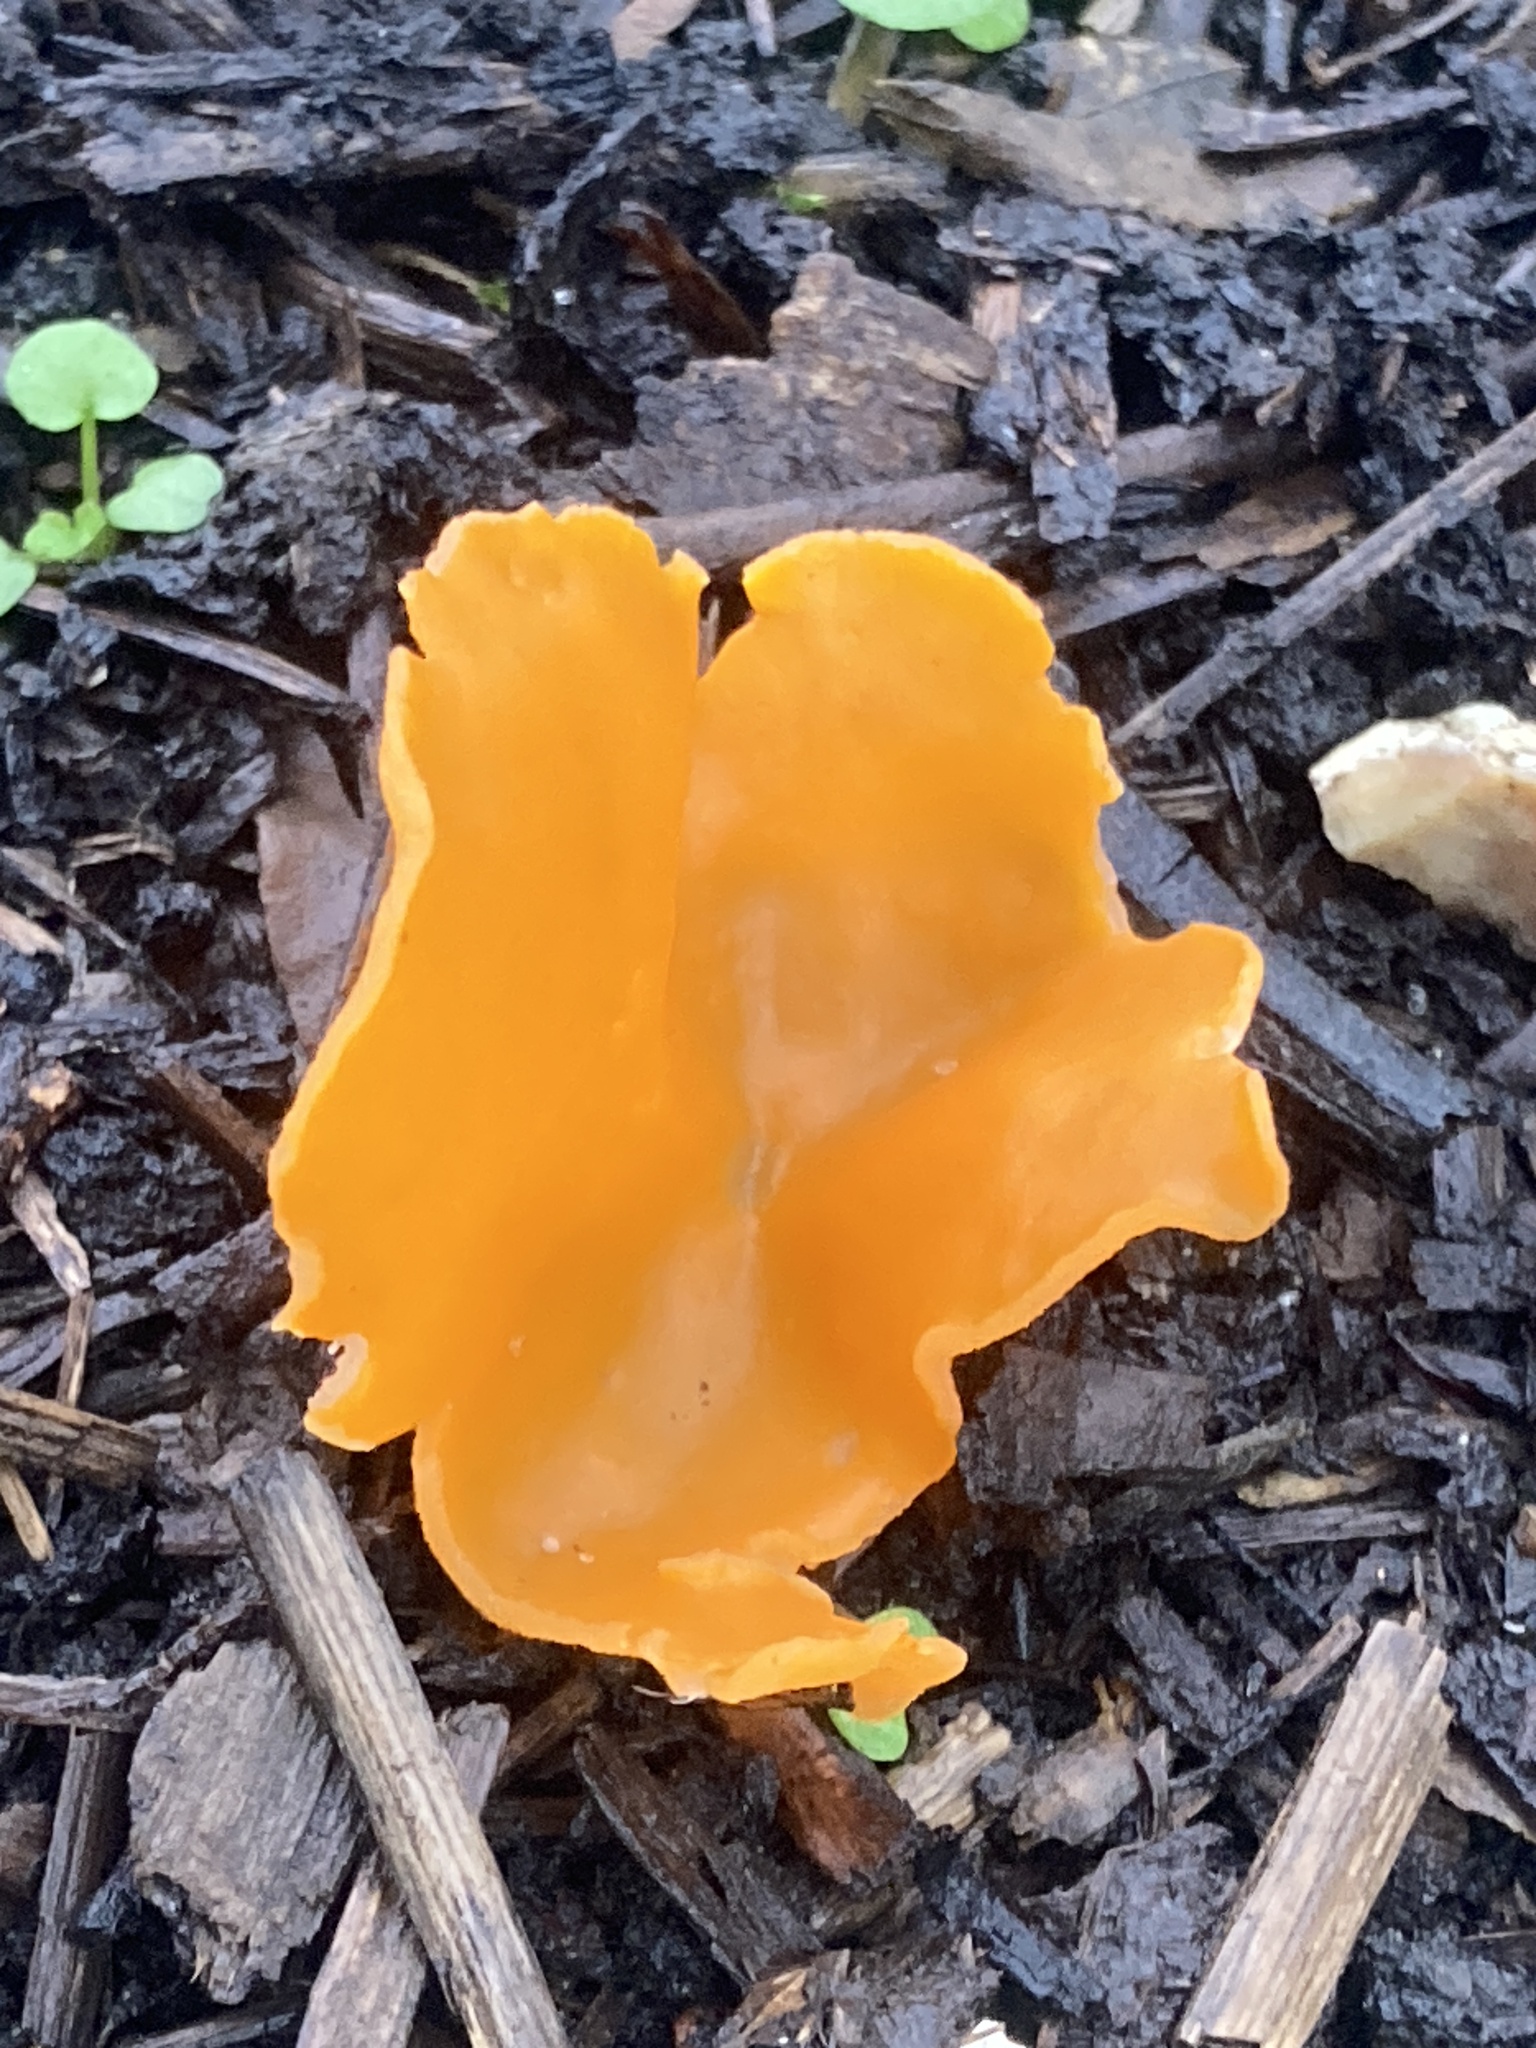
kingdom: Fungi
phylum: Ascomycota
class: Pezizomycetes
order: Pezizales
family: Pyronemataceae
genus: Aleuria
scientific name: Aleuria aurantia
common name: Orange peel fungus
